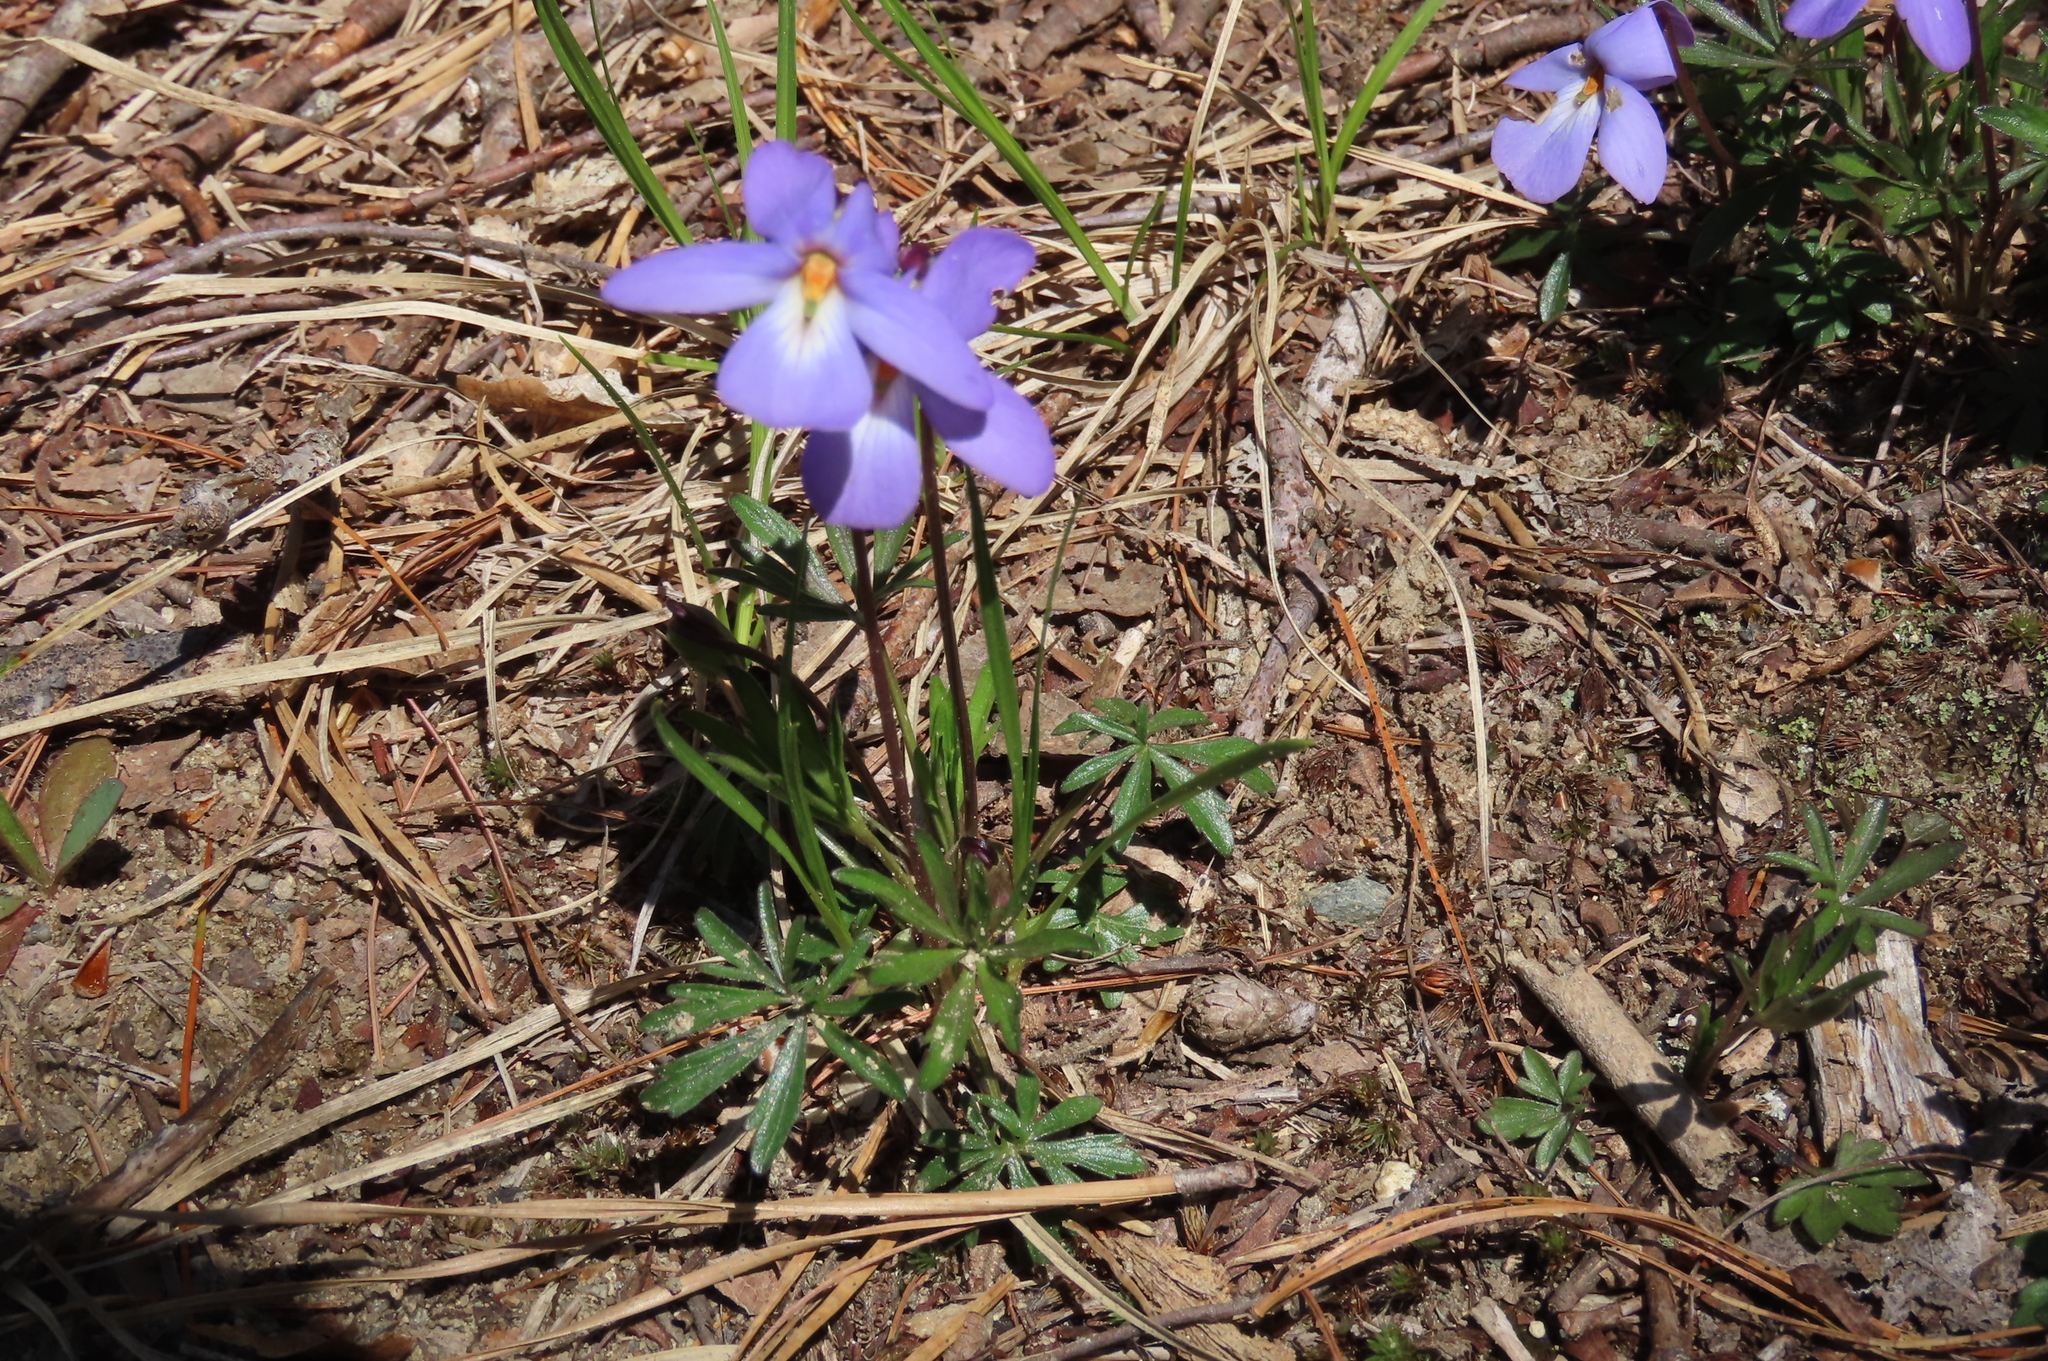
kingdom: Plantae
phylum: Tracheophyta
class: Magnoliopsida
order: Malpighiales
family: Violaceae
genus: Viola
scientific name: Viola pedata
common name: Pansy violet
